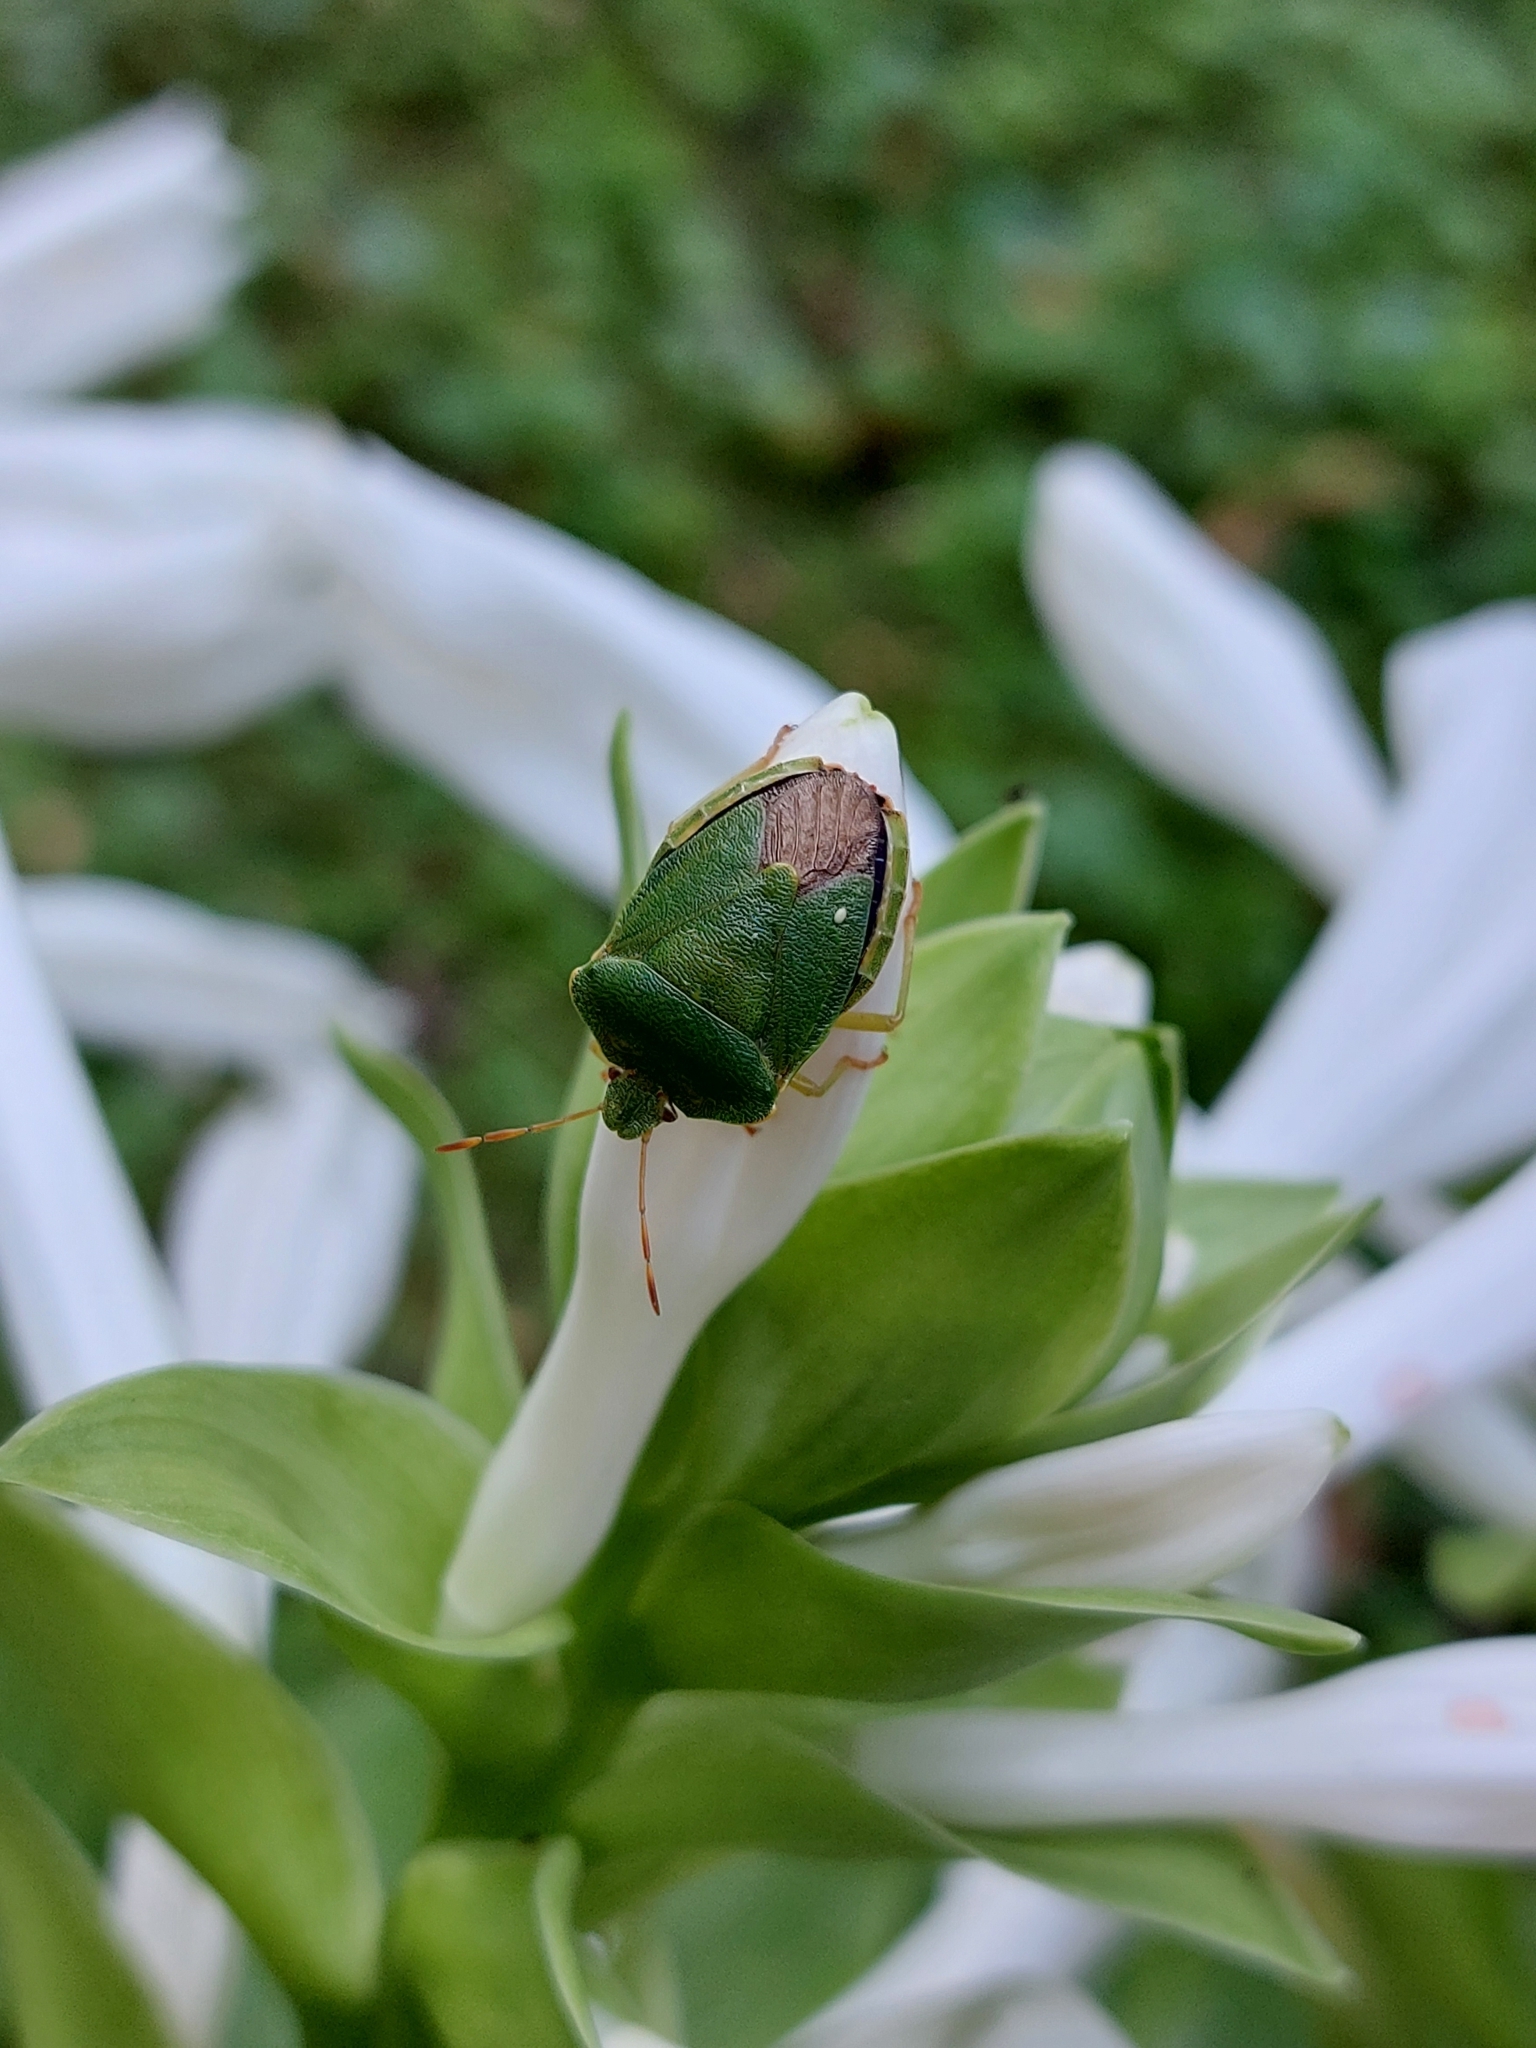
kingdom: Animalia
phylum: Arthropoda
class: Insecta
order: Hemiptera
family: Pentatomidae
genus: Palomena
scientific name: Palomena prasina
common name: Green shieldbug
